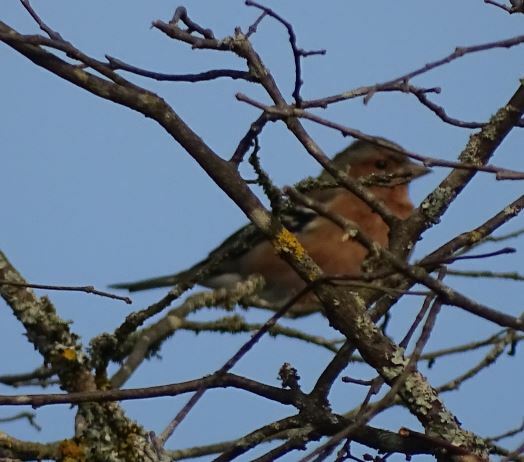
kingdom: Animalia
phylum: Chordata
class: Aves
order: Passeriformes
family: Fringillidae
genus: Fringilla
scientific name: Fringilla coelebs
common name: Common chaffinch
